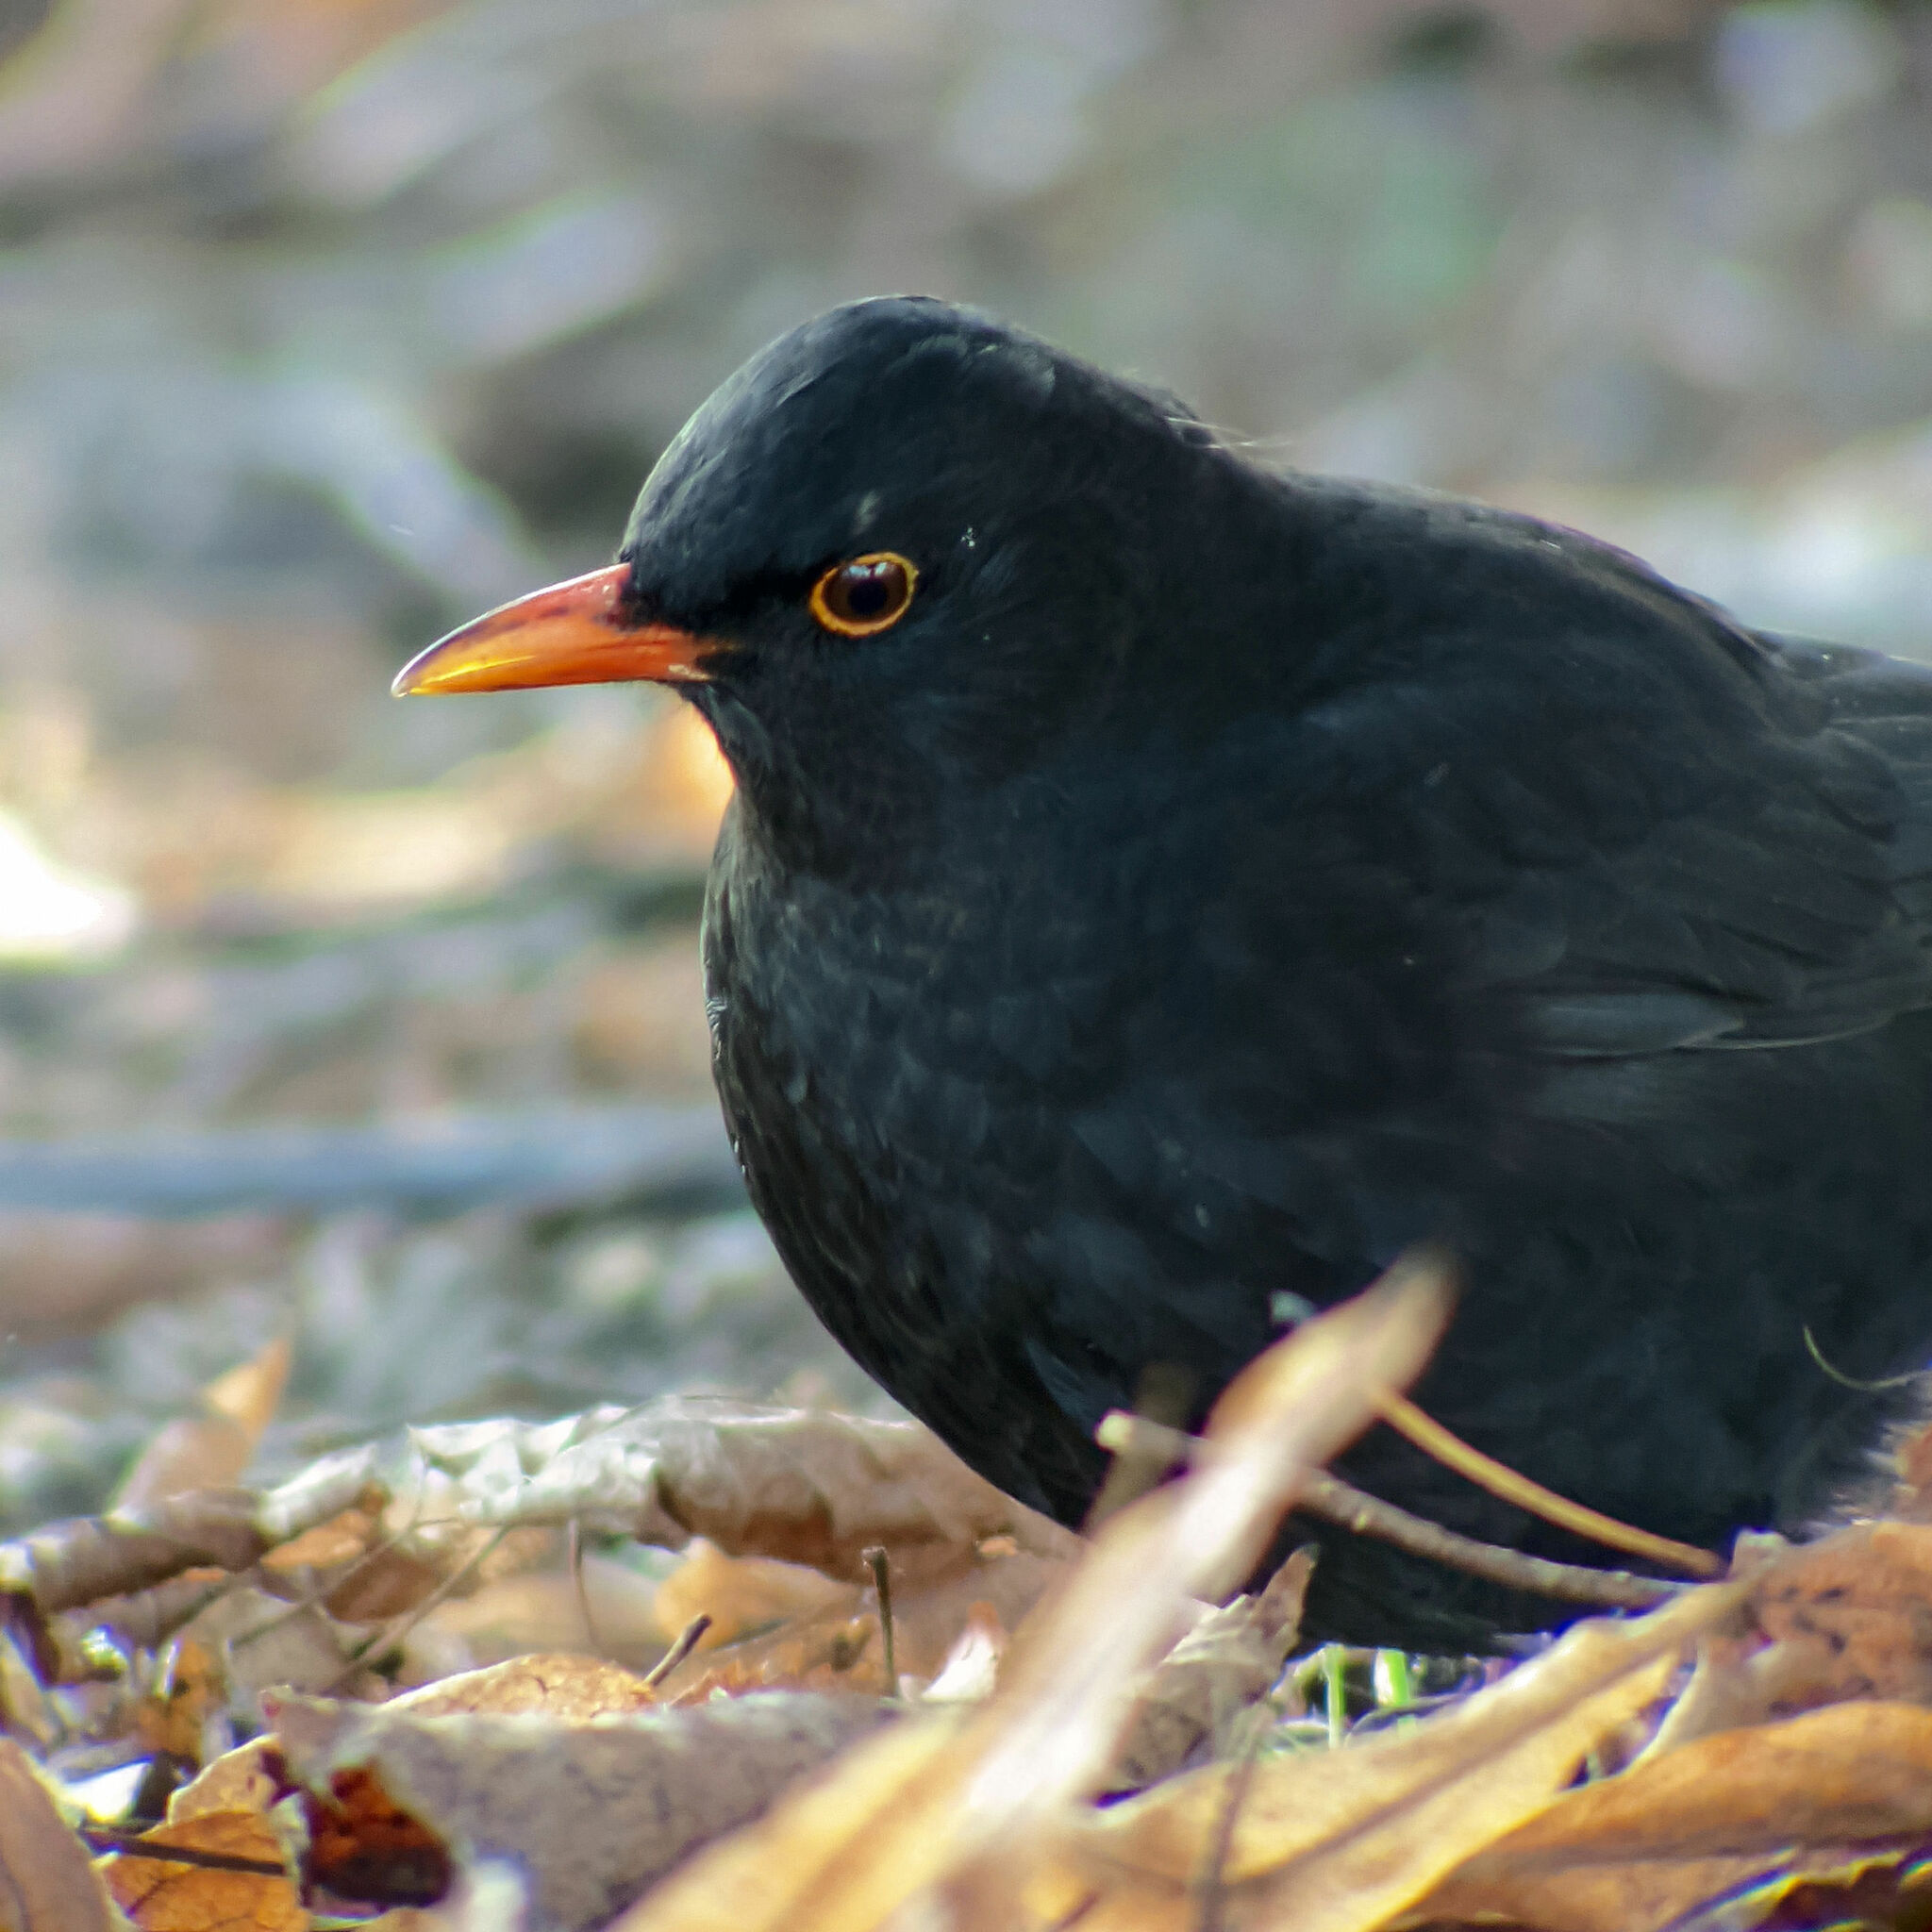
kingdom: Animalia
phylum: Chordata
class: Aves
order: Passeriformes
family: Turdidae
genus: Turdus
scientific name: Turdus merula
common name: Common blackbird
